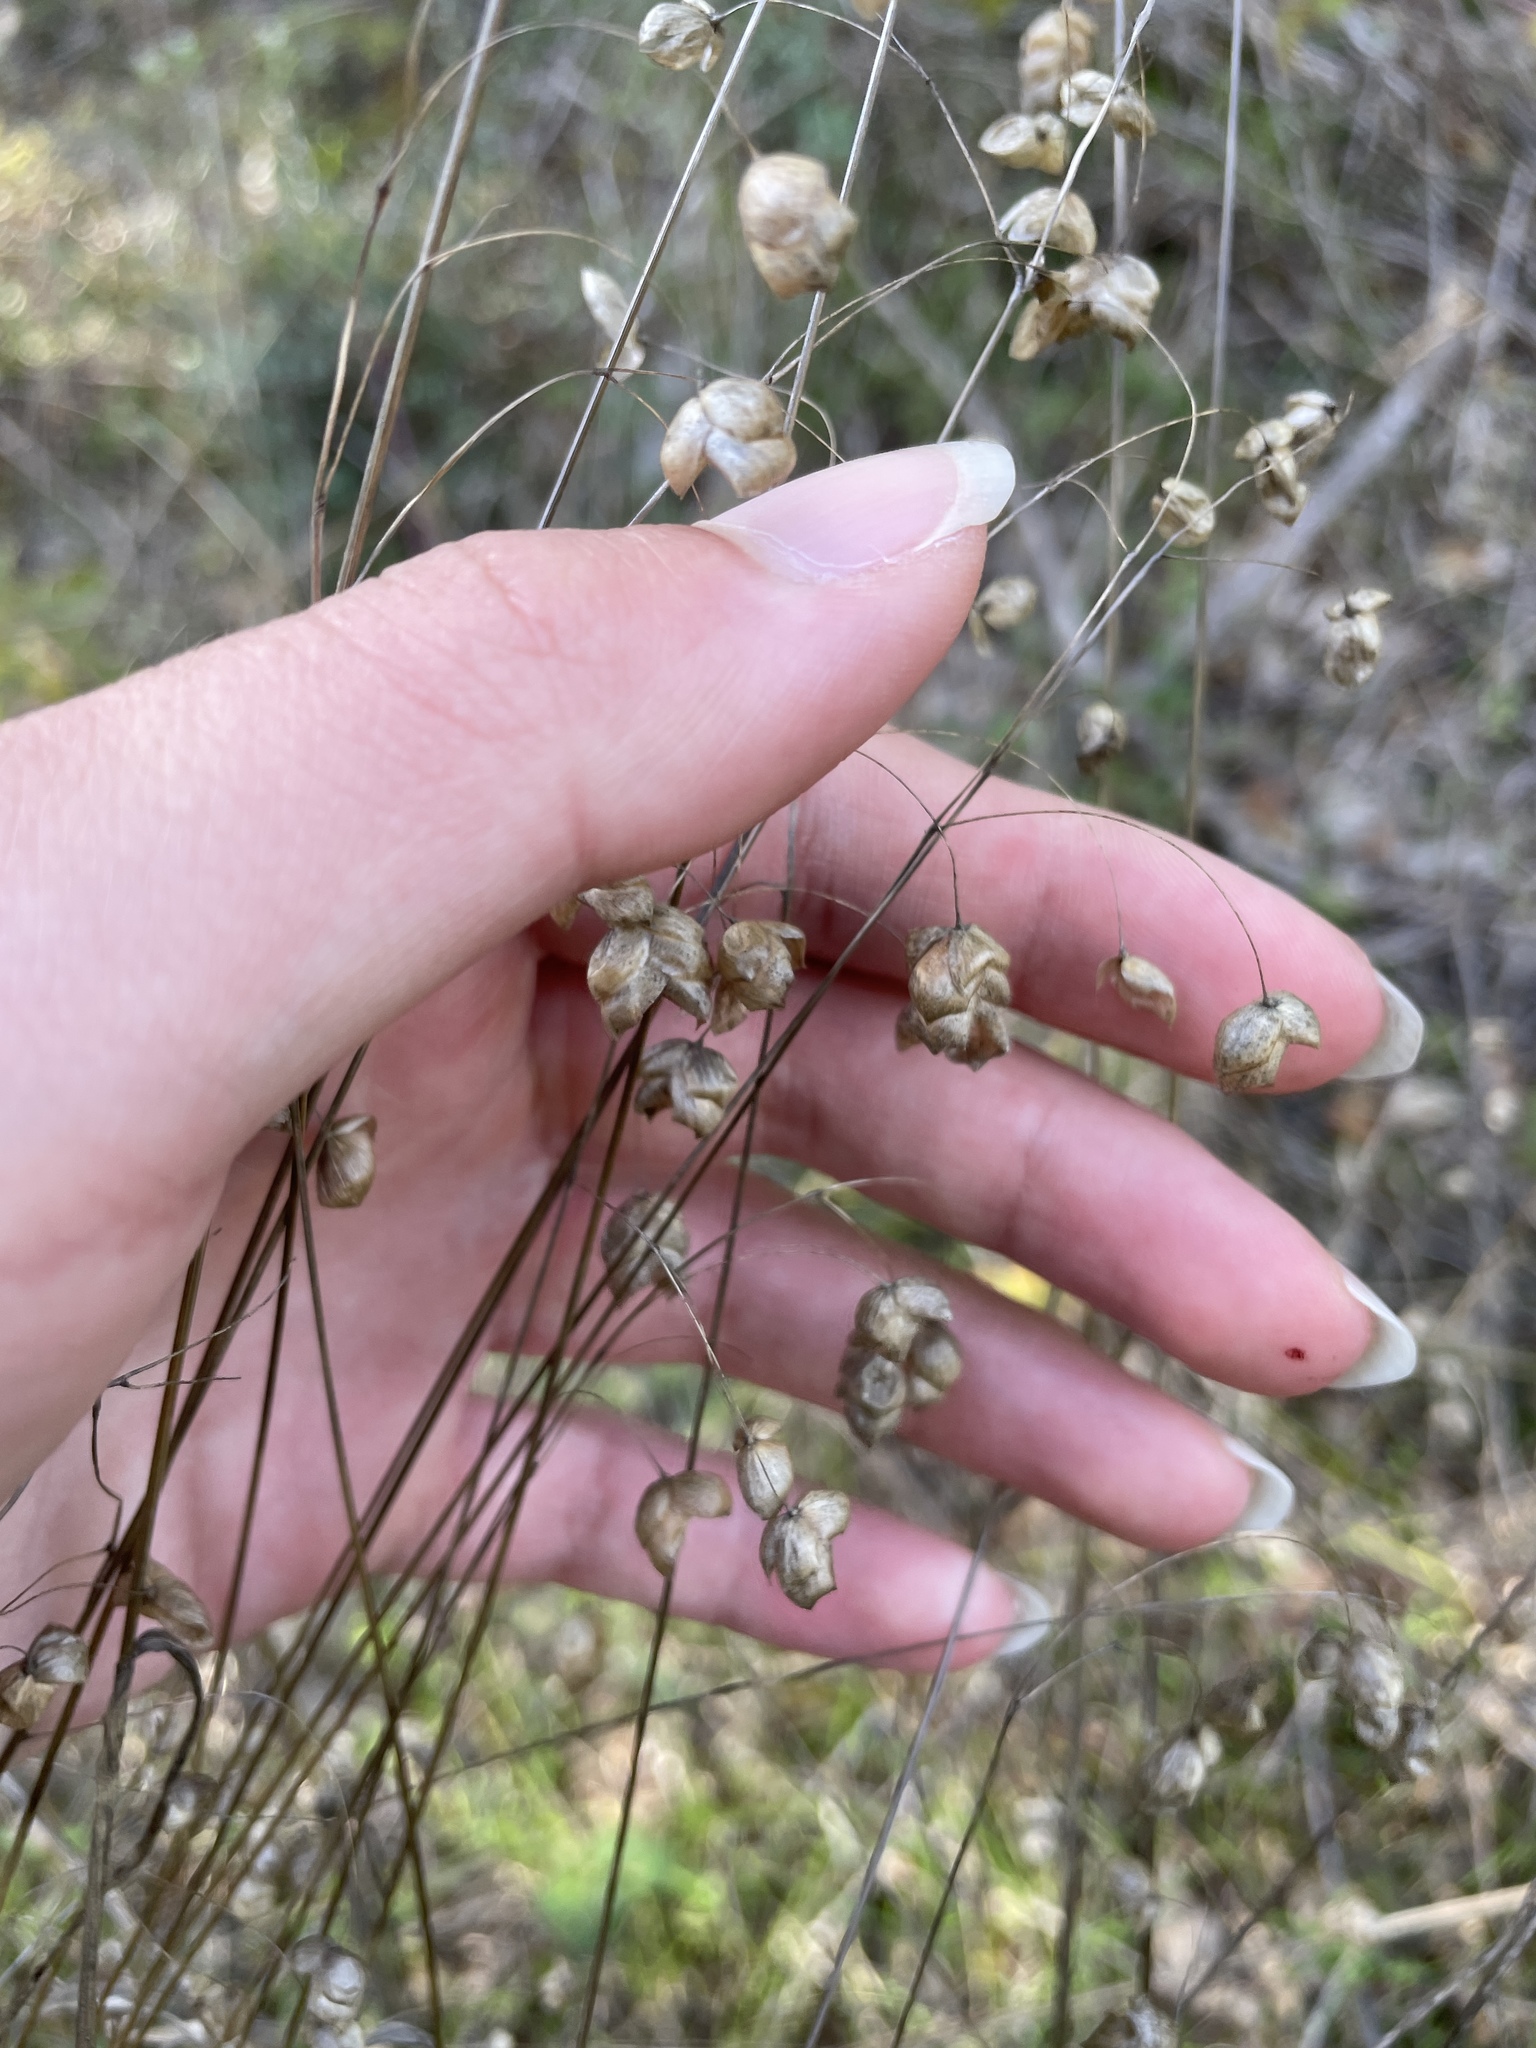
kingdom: Plantae
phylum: Tracheophyta
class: Liliopsida
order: Poales
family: Poaceae
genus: Briza
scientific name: Briza maxima
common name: Big quakinggrass
